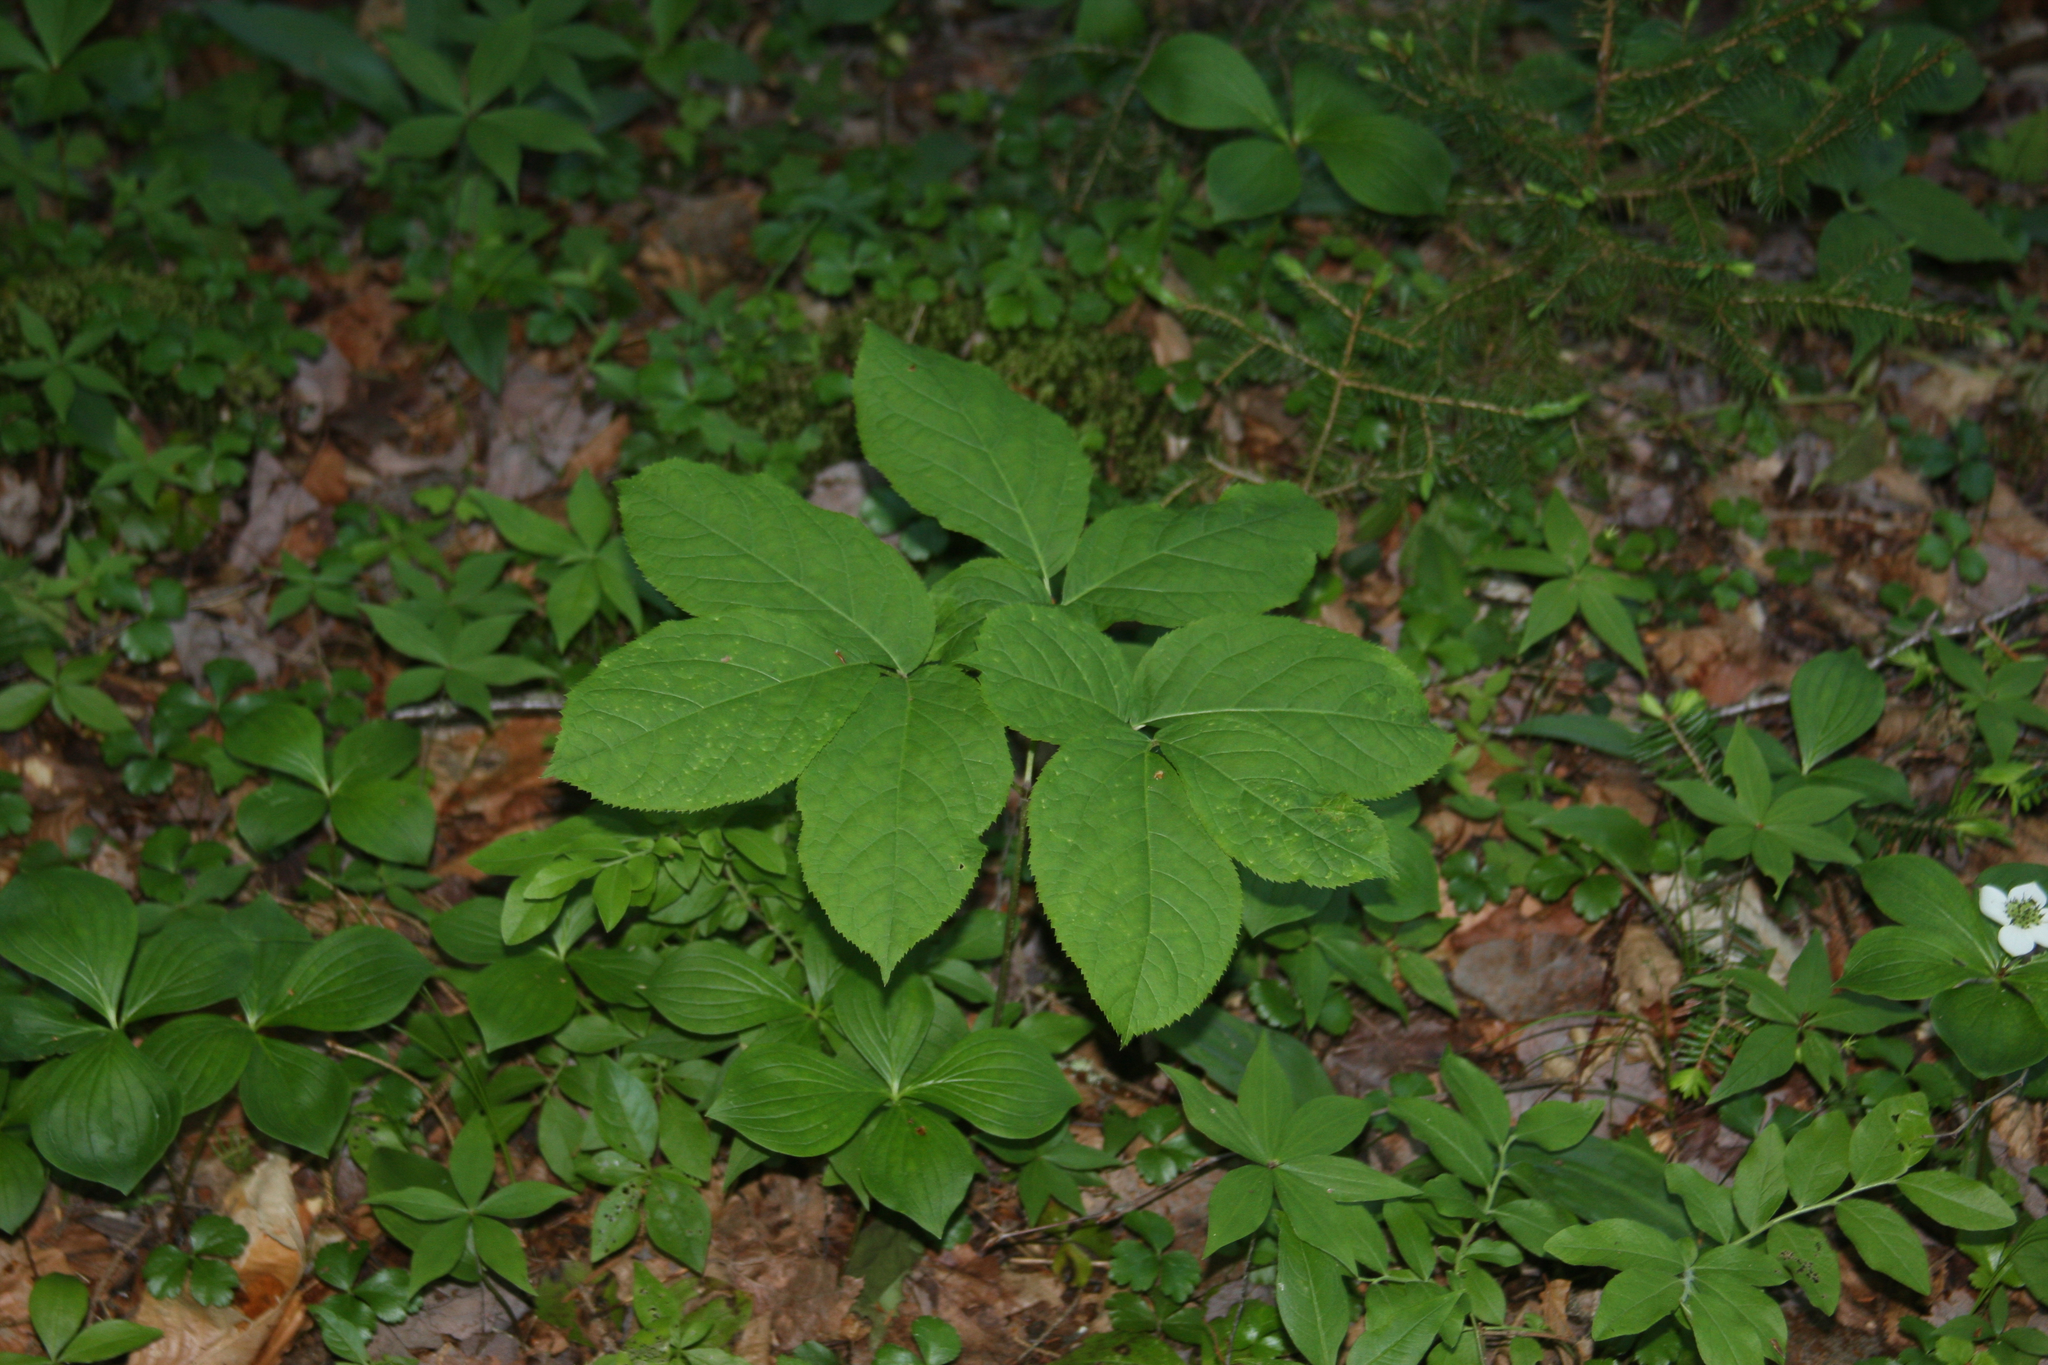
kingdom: Plantae
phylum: Tracheophyta
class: Magnoliopsida
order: Apiales
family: Araliaceae
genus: Aralia
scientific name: Aralia nudicaulis
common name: Wild sarsaparilla
